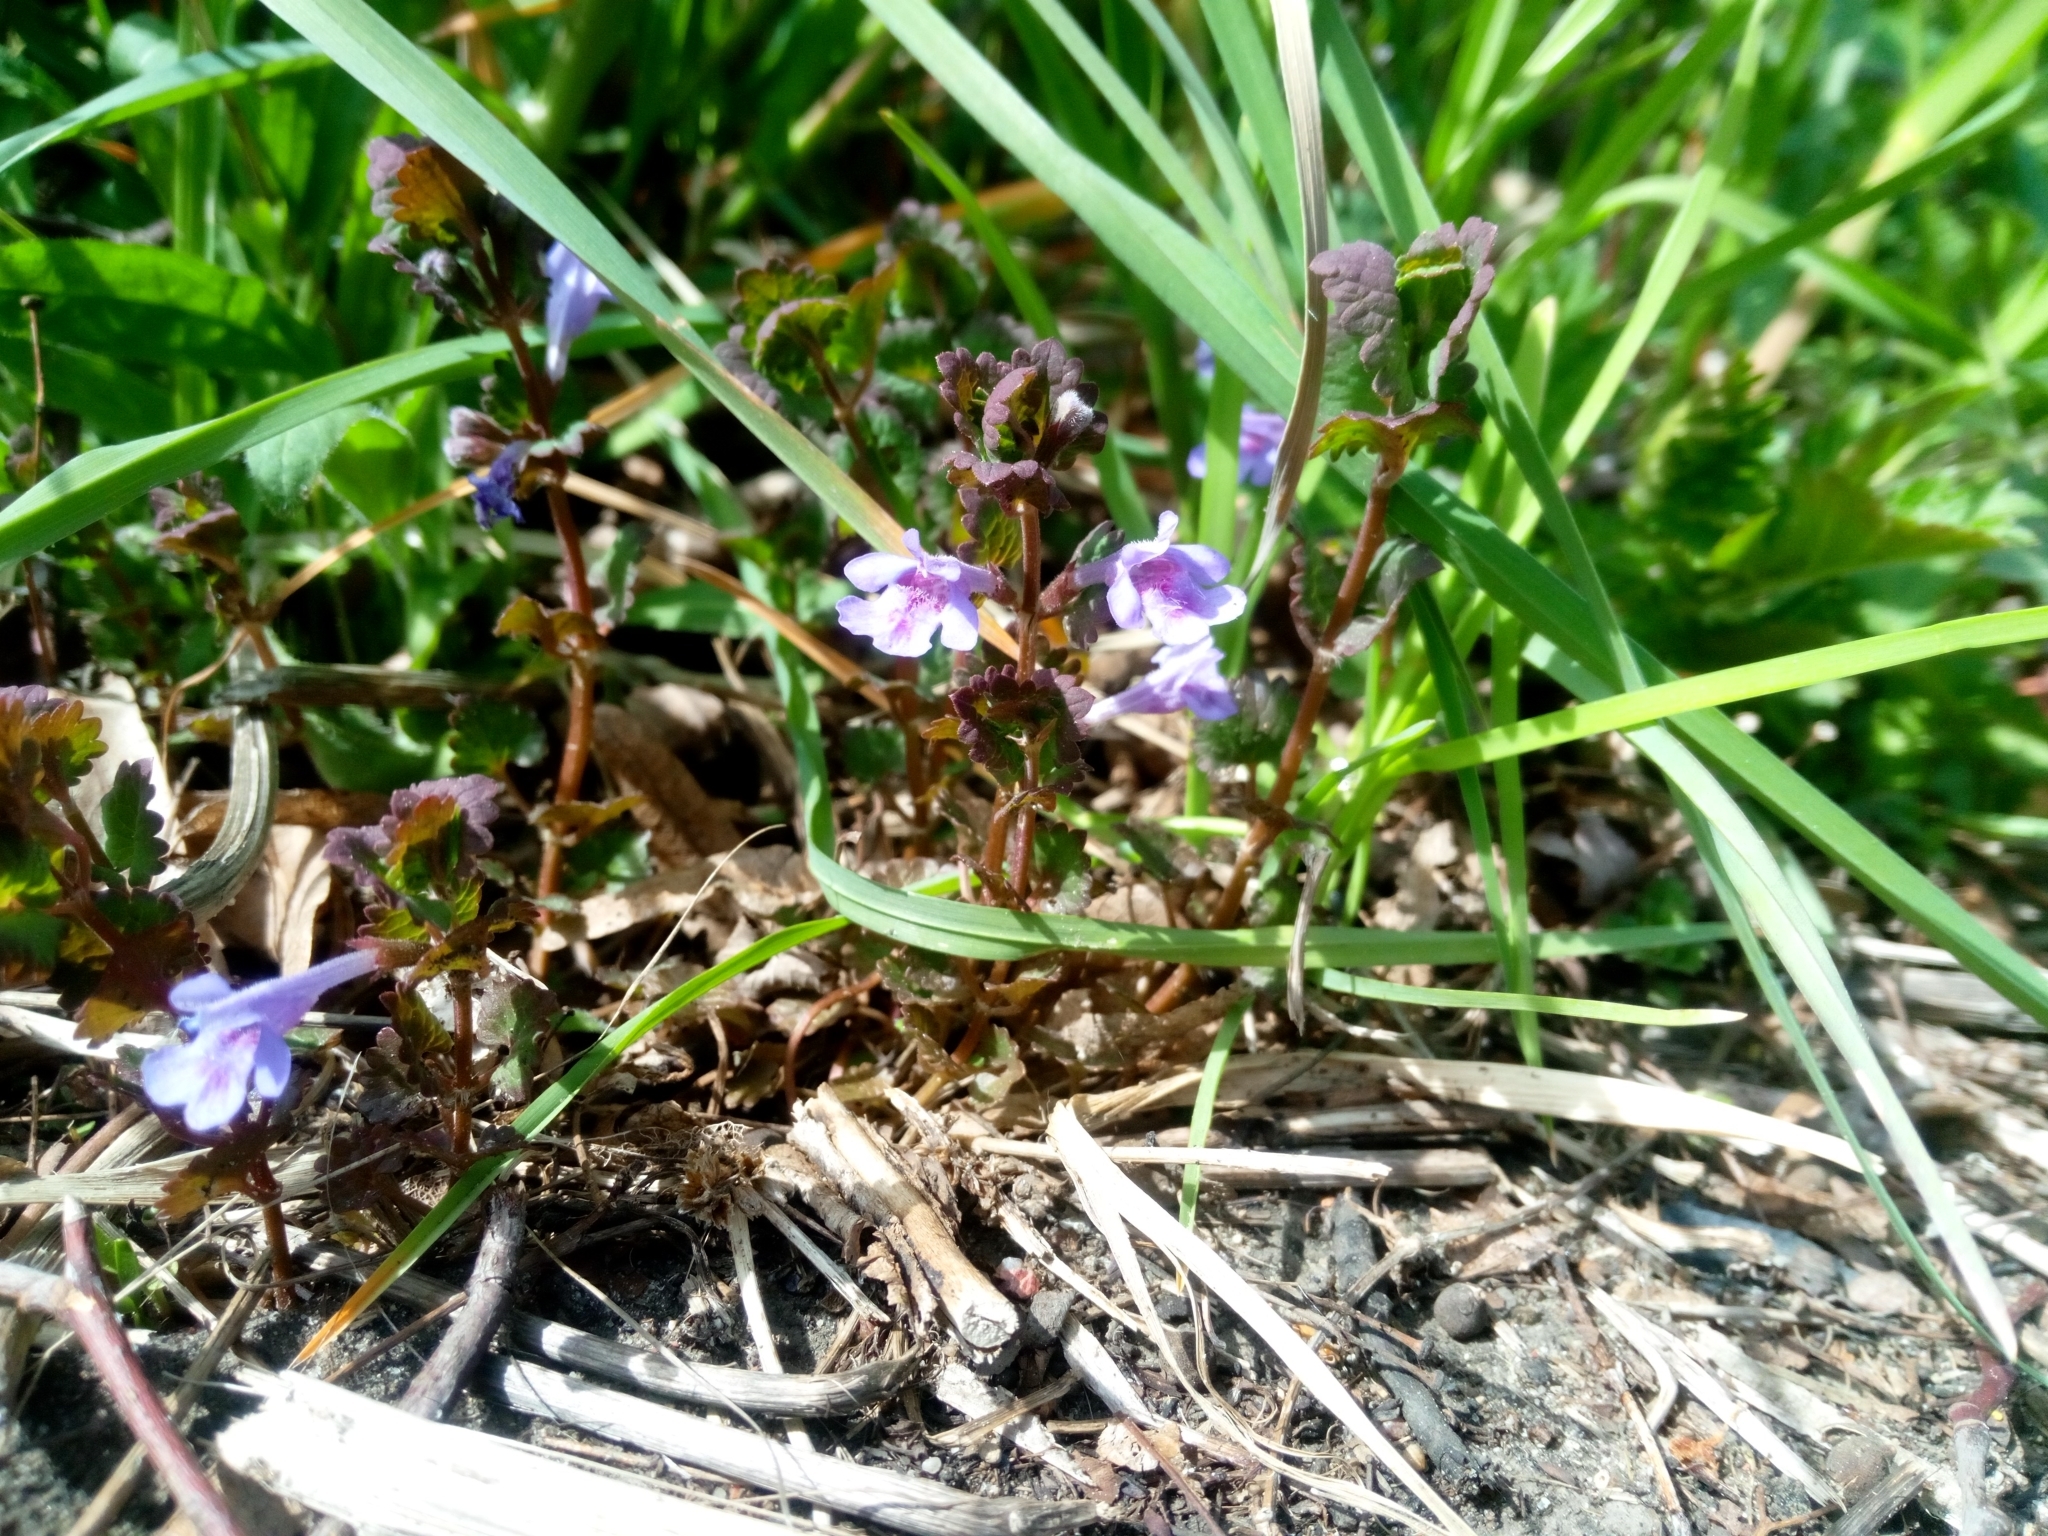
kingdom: Plantae
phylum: Tracheophyta
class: Magnoliopsida
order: Lamiales
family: Lamiaceae
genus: Glechoma
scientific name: Glechoma hederacea
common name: Ground ivy
